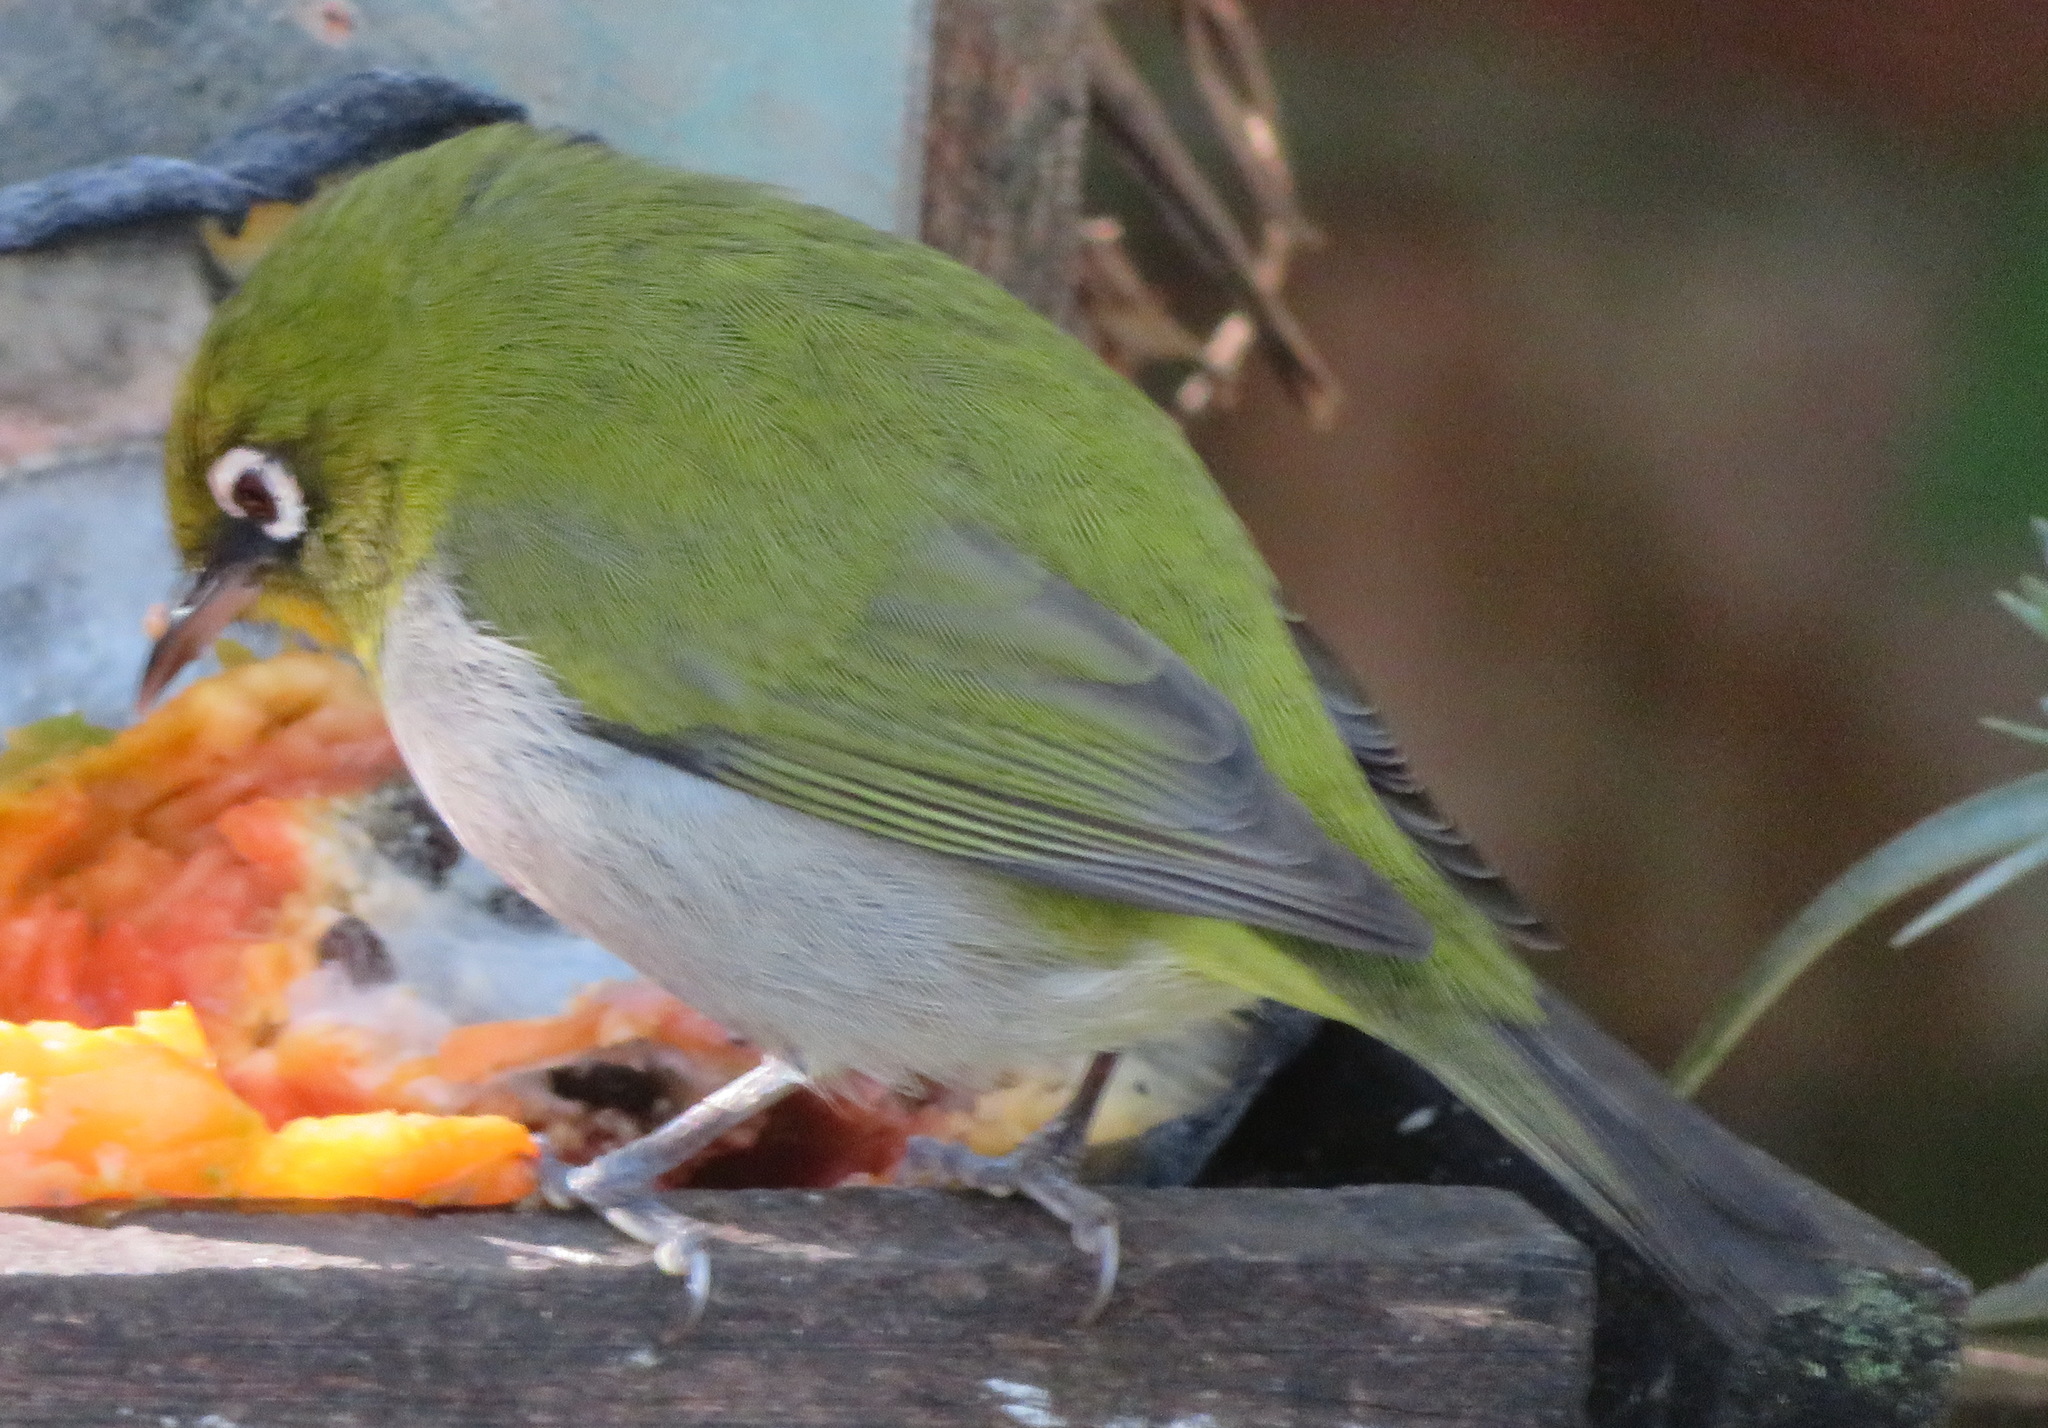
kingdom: Animalia
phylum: Chordata
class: Aves
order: Passeriformes
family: Zosteropidae
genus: Zosterops
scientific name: Zosterops virens
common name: Cape white-eye
